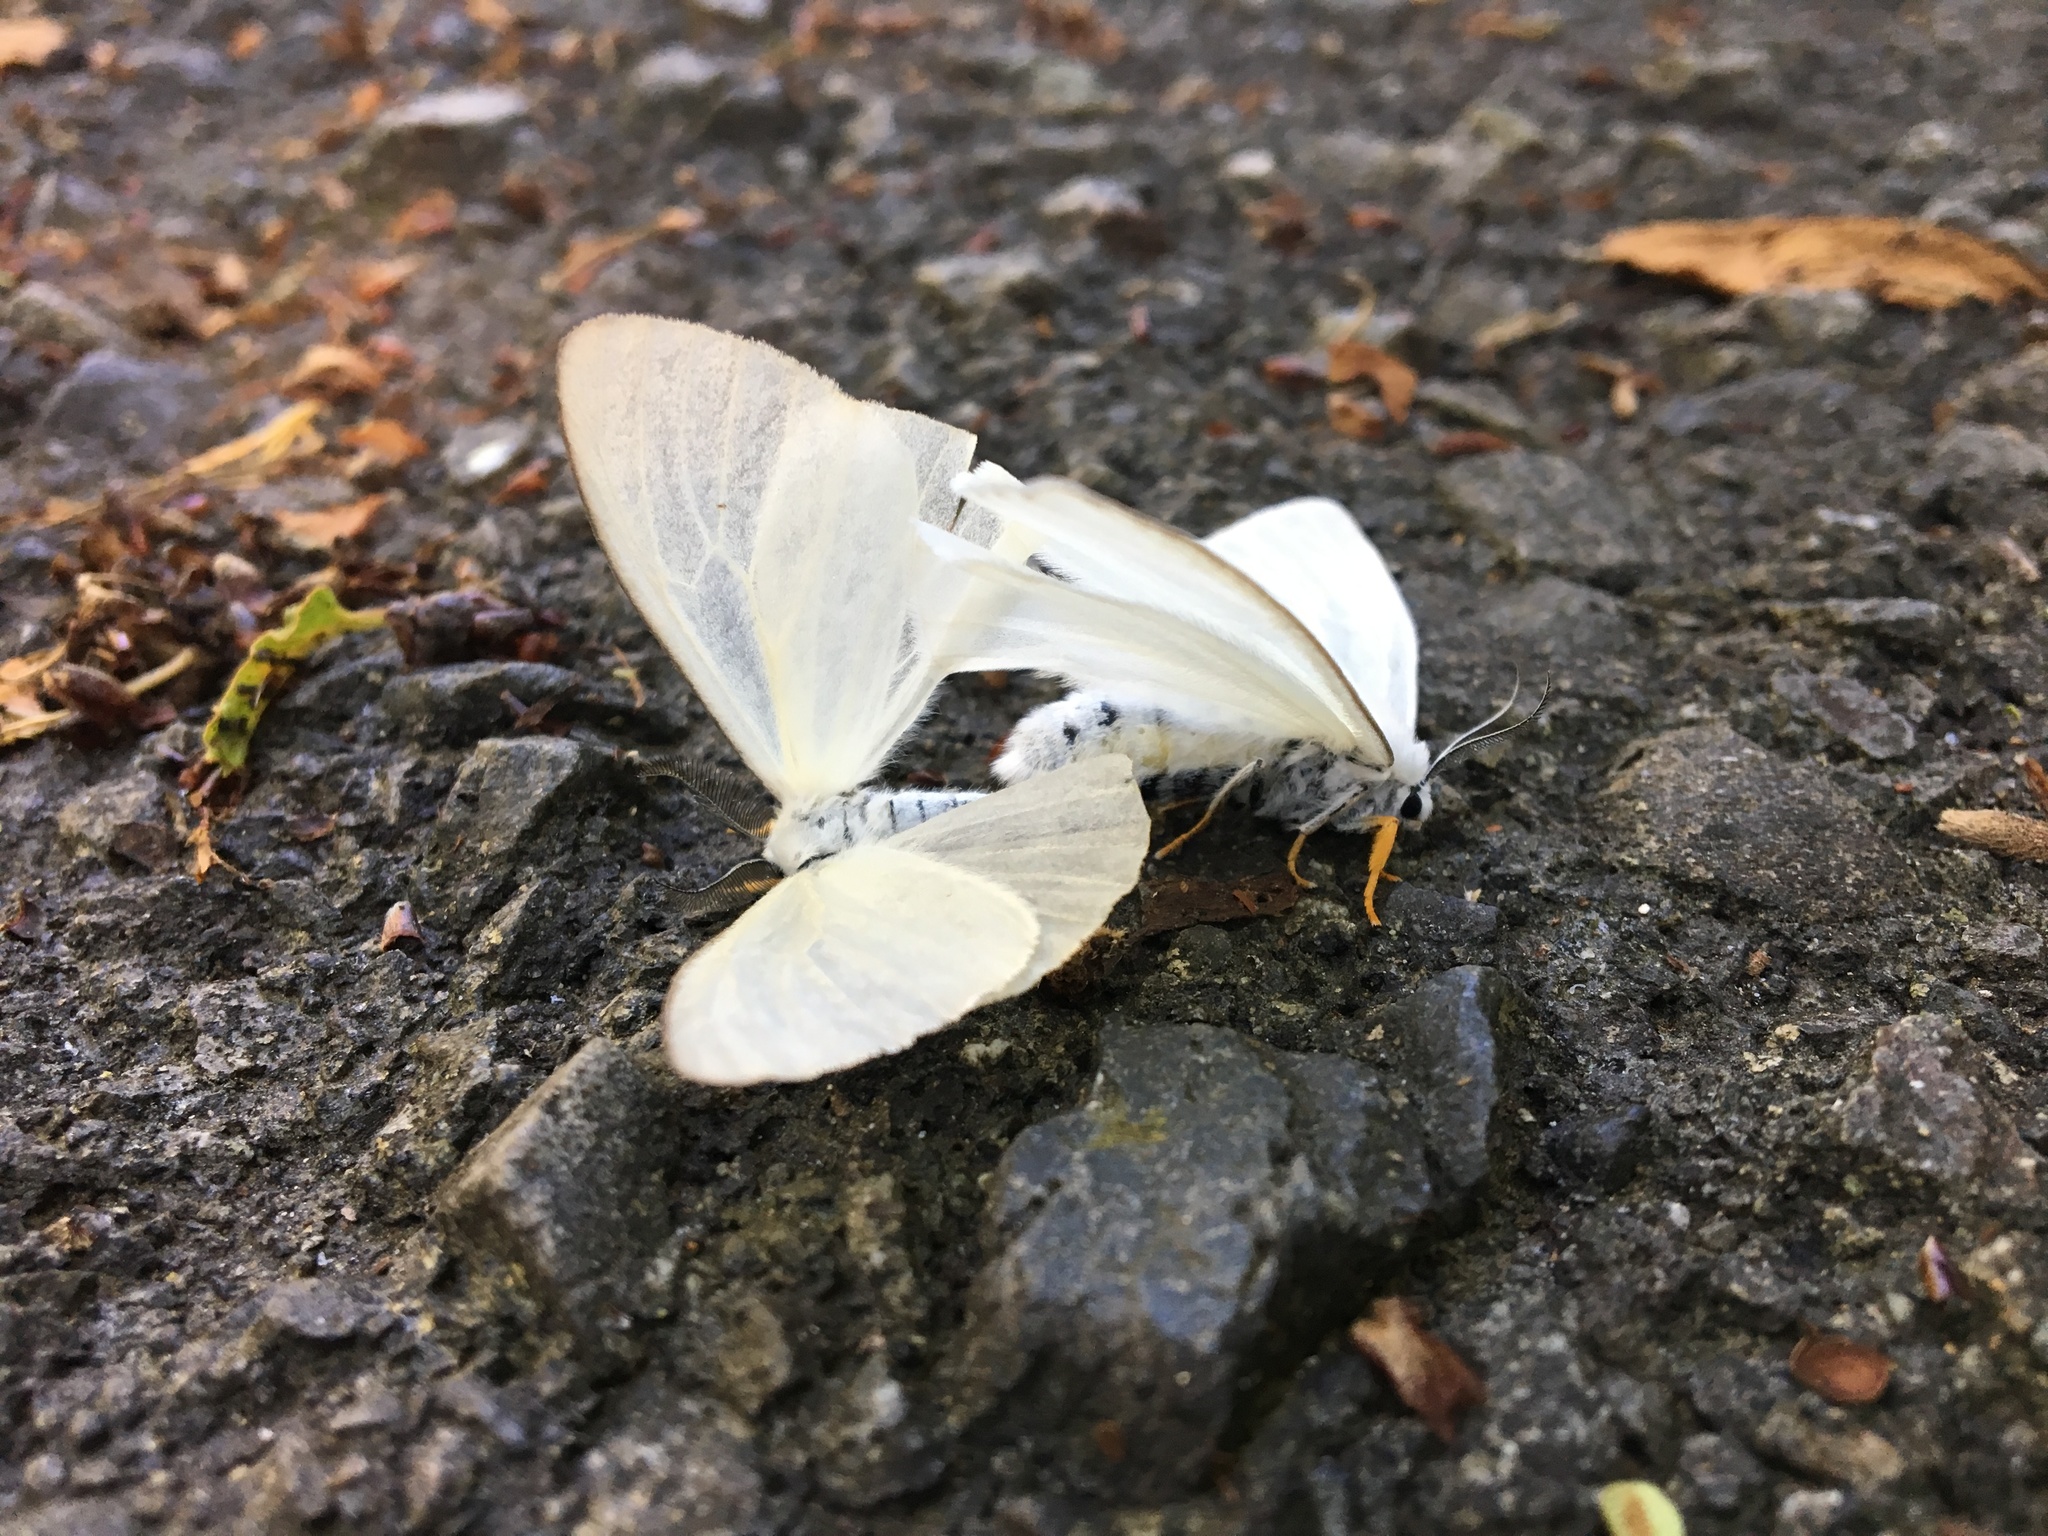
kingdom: Animalia
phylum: Arthropoda
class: Insecta
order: Lepidoptera
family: Erebidae
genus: Ivela
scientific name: Ivela auripes
